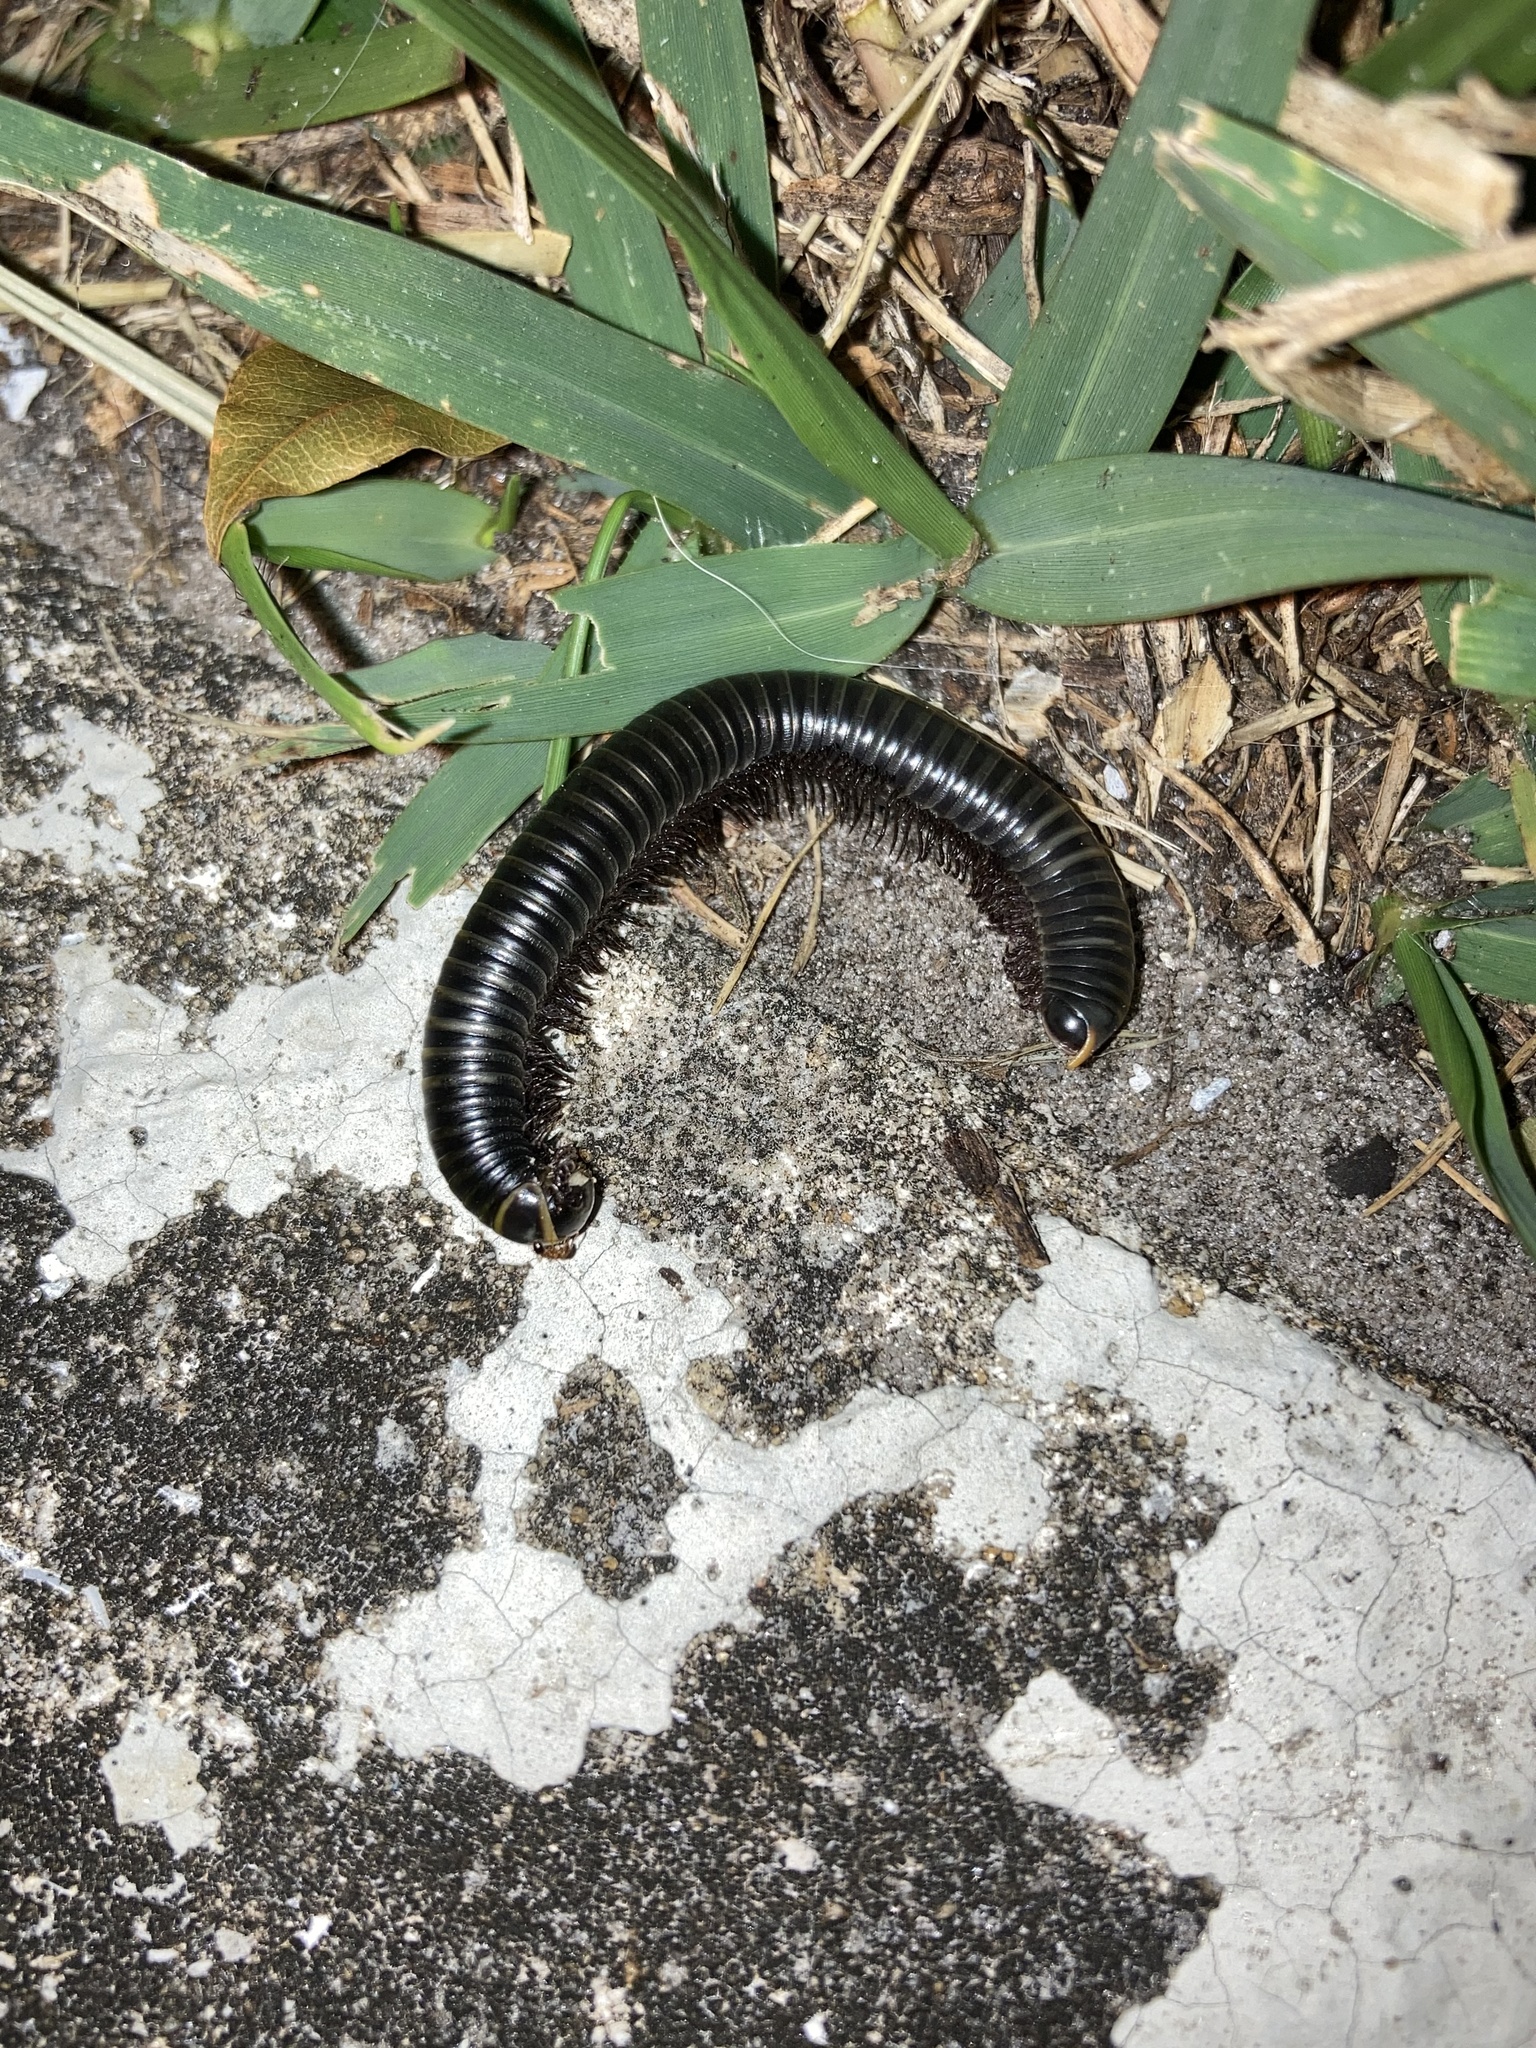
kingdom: Animalia
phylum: Arthropoda
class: Diplopoda
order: Spirobolida
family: Rhinocricidae
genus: Anadenobolus
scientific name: Anadenobolus monilicornis
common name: Caribbean millipede
